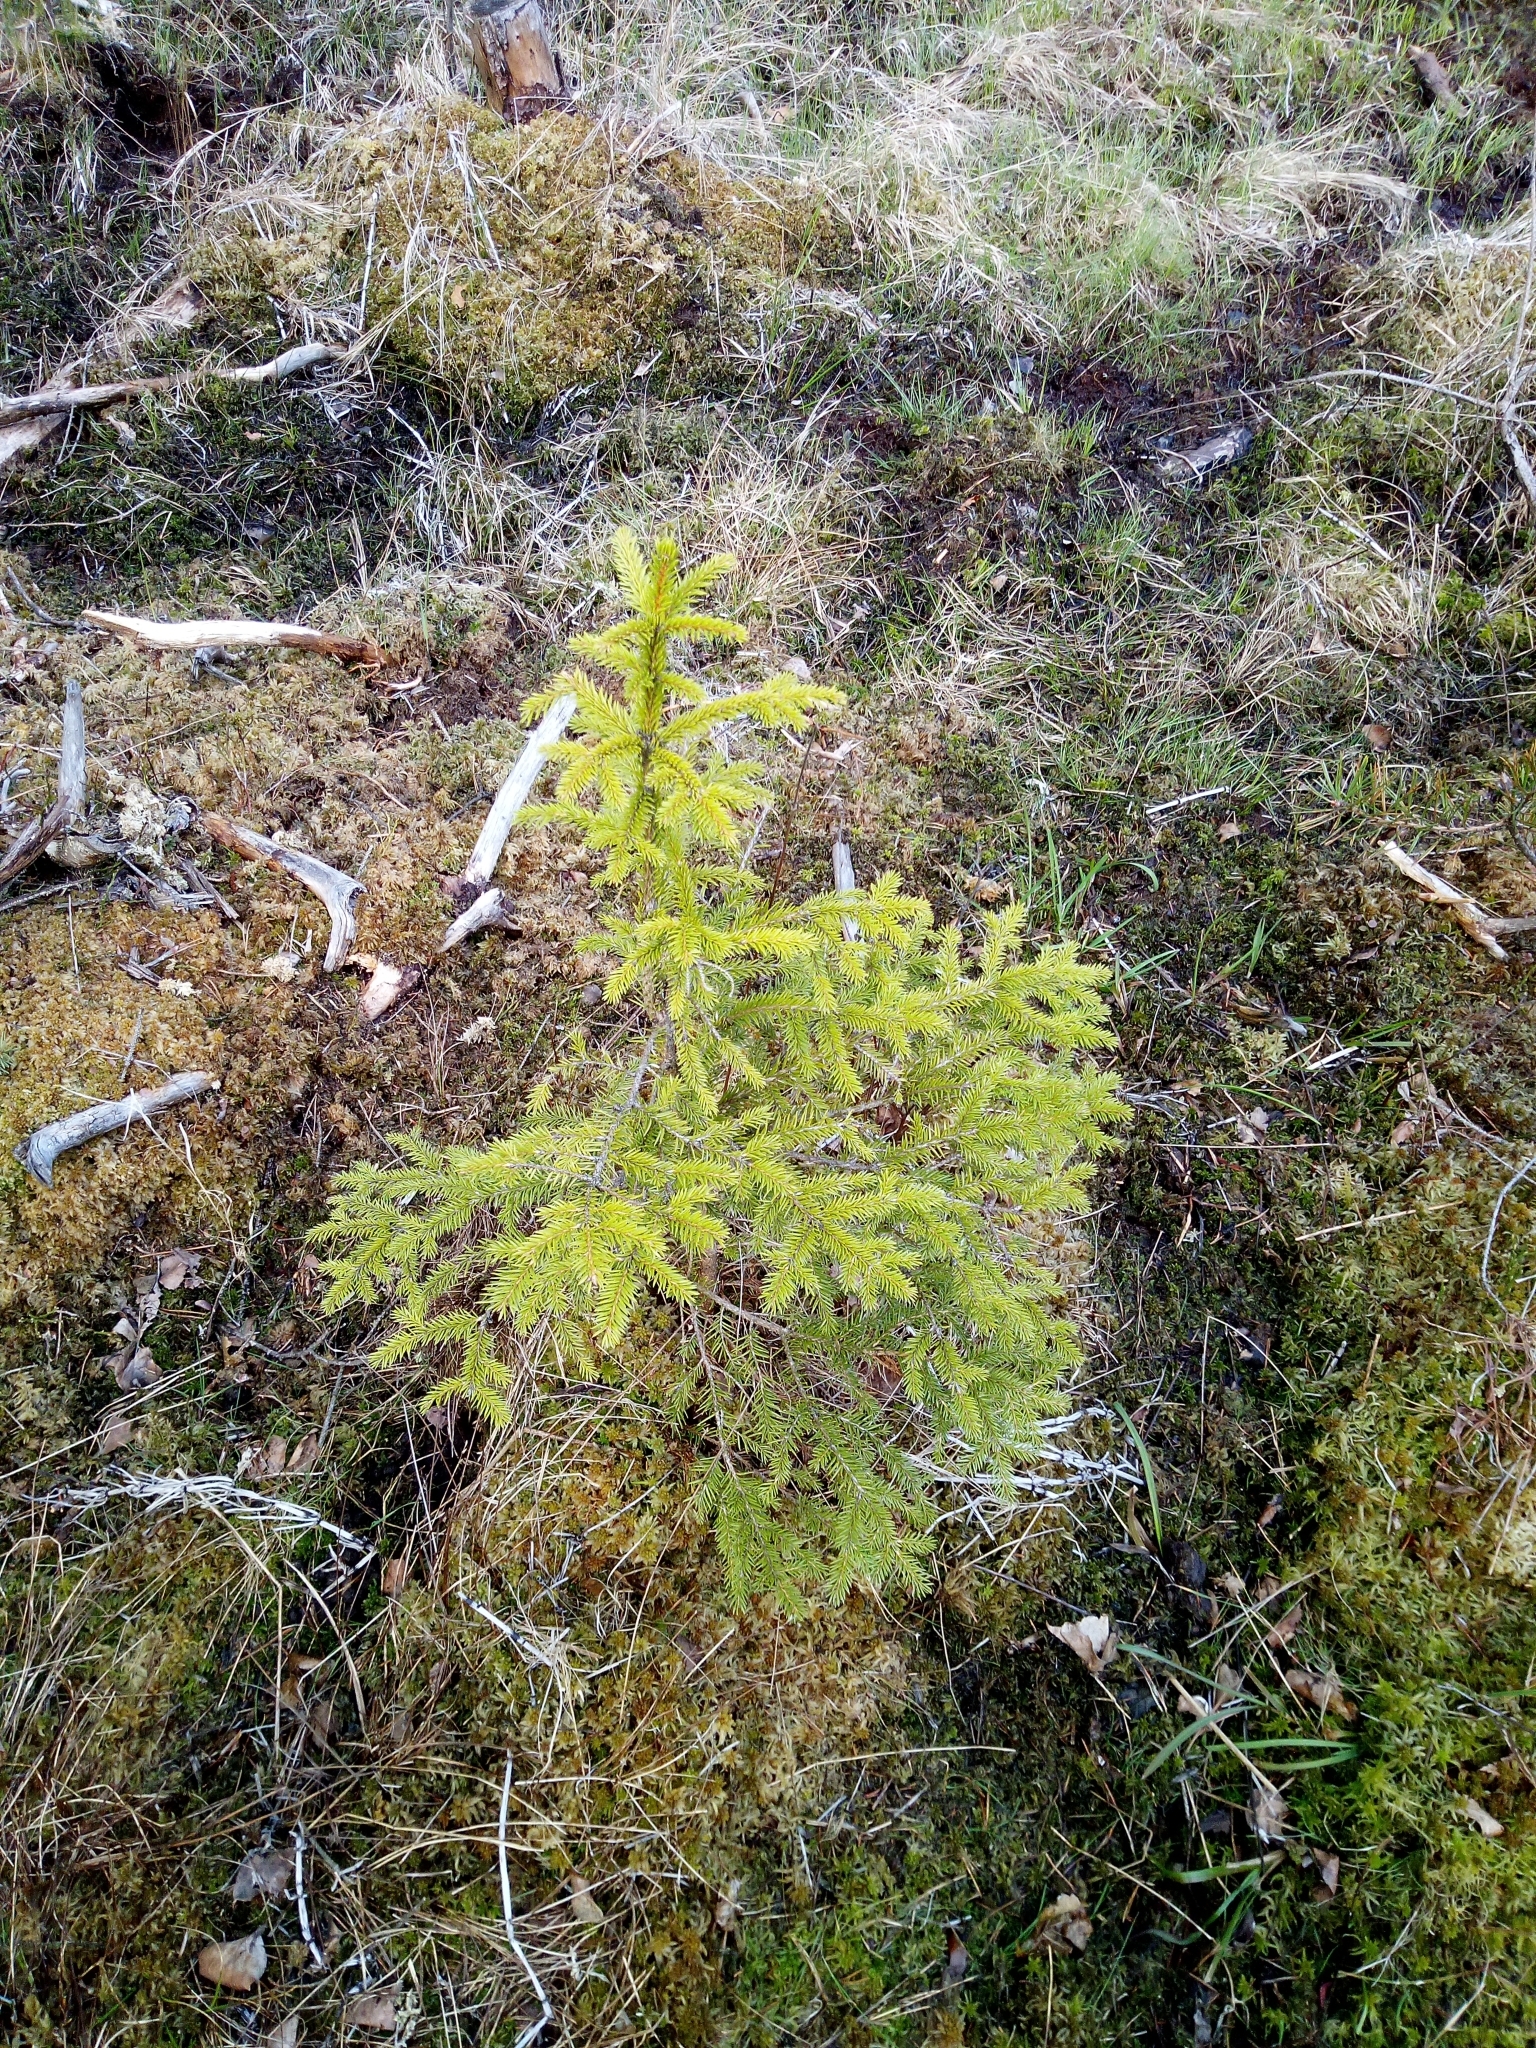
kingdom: Plantae
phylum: Tracheophyta
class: Pinopsida
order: Pinales
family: Pinaceae
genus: Picea
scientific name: Picea abies
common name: Norway spruce
